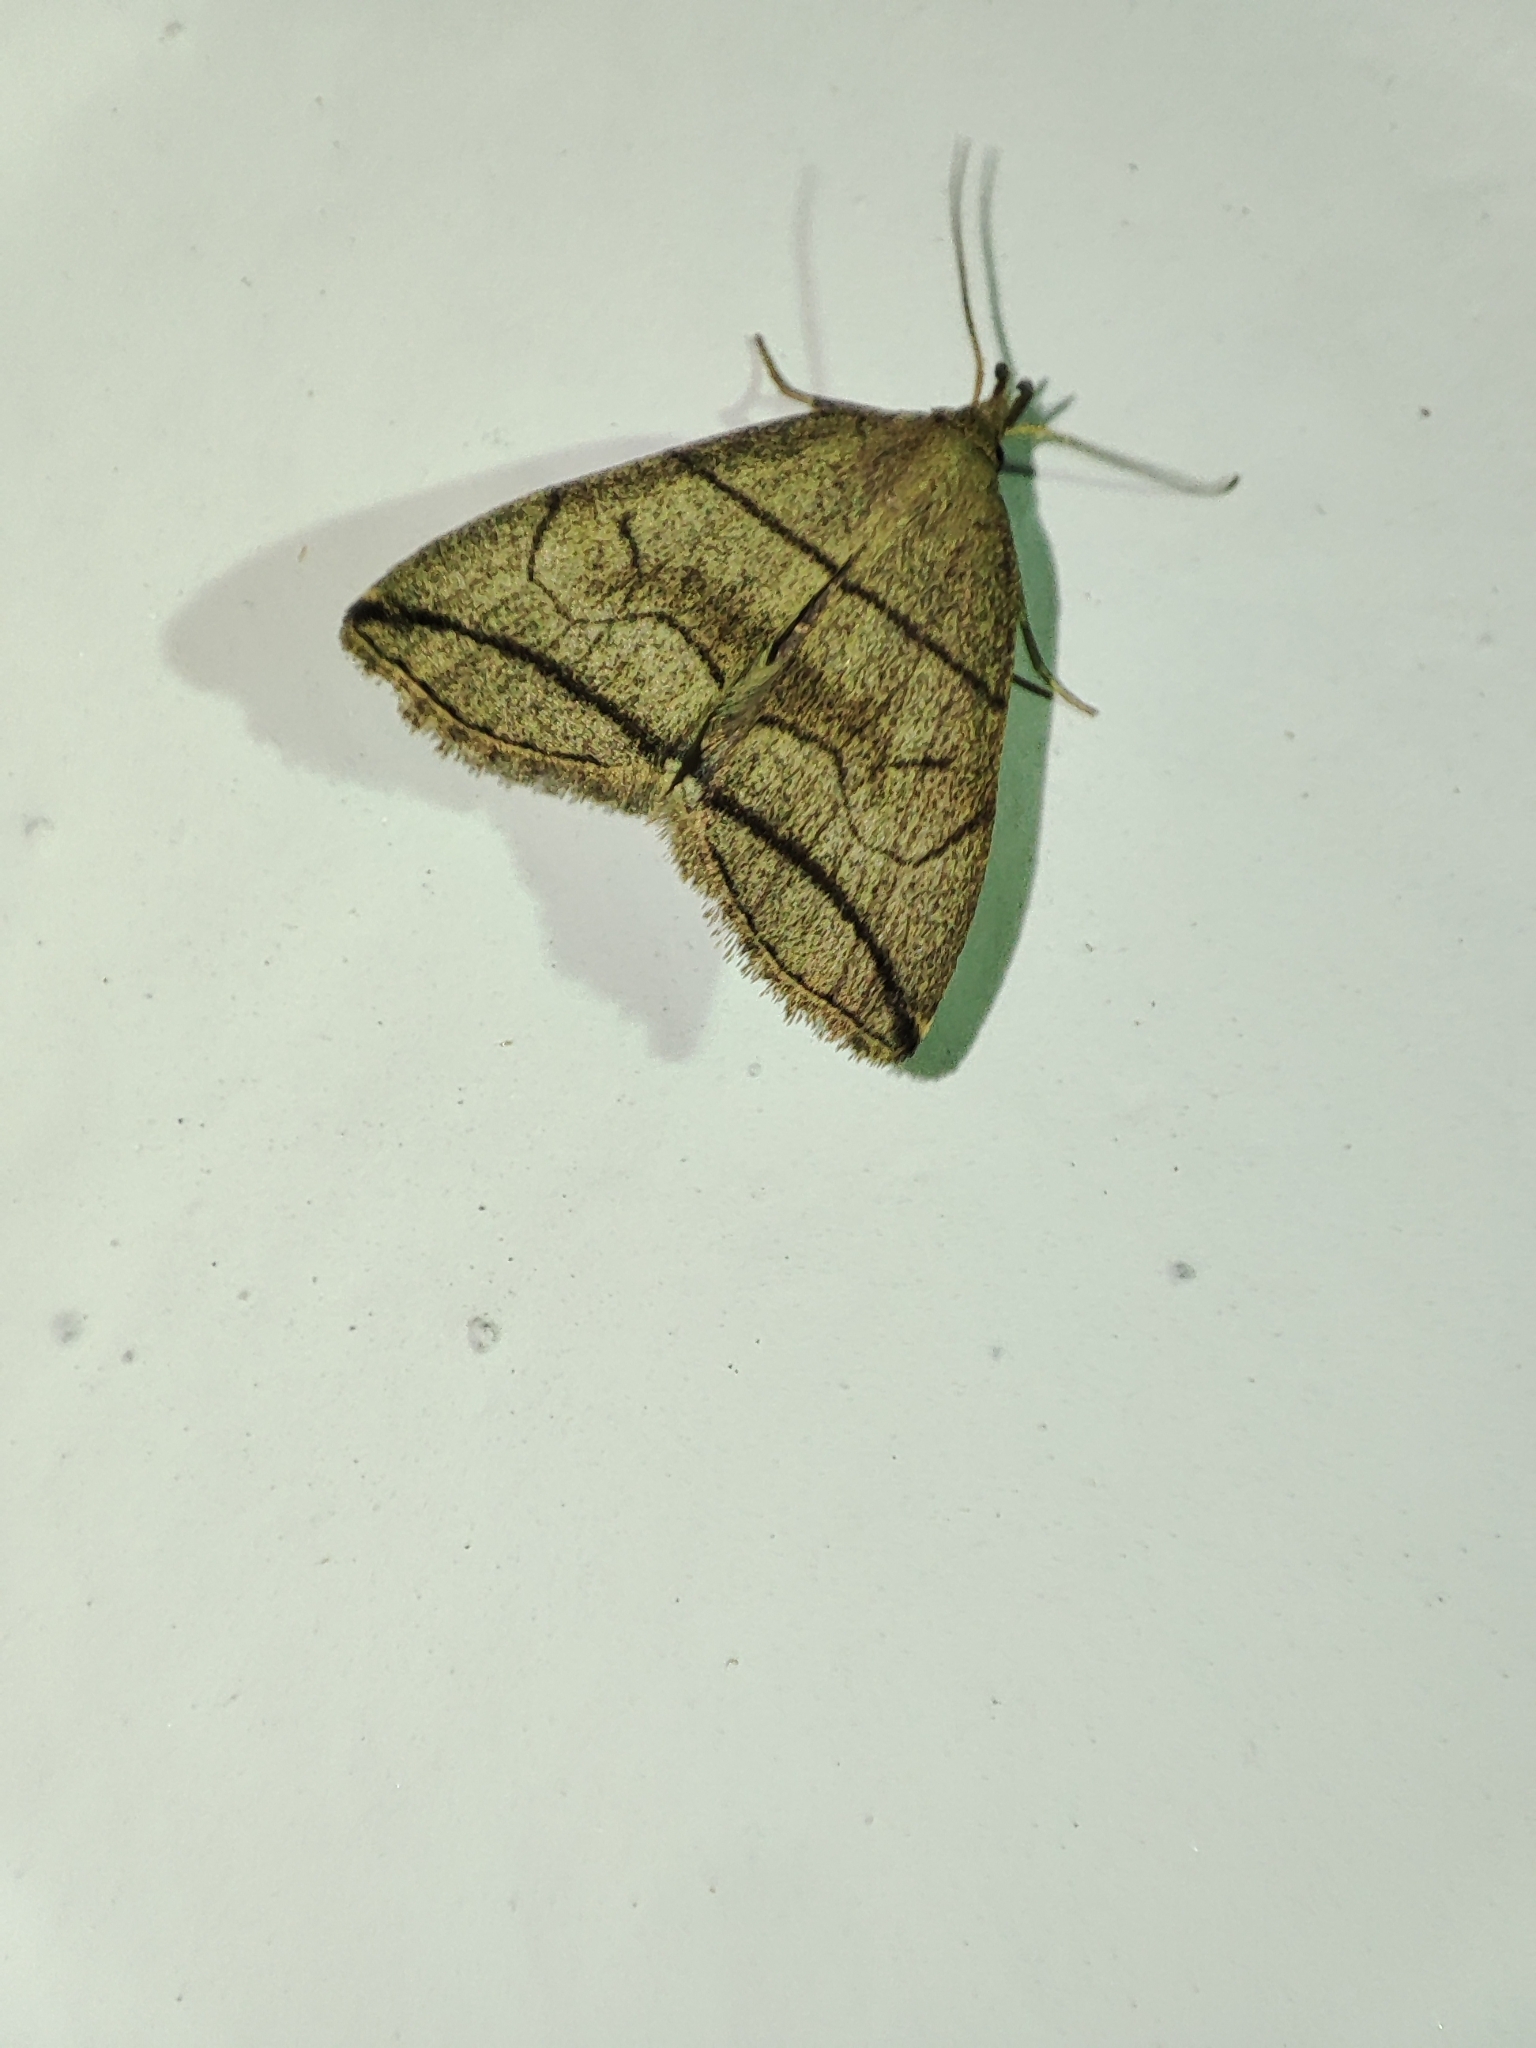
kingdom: Animalia
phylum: Arthropoda
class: Insecta
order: Lepidoptera
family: Erebidae
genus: Herminia
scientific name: Herminia grisealis
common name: Small fan-foot
